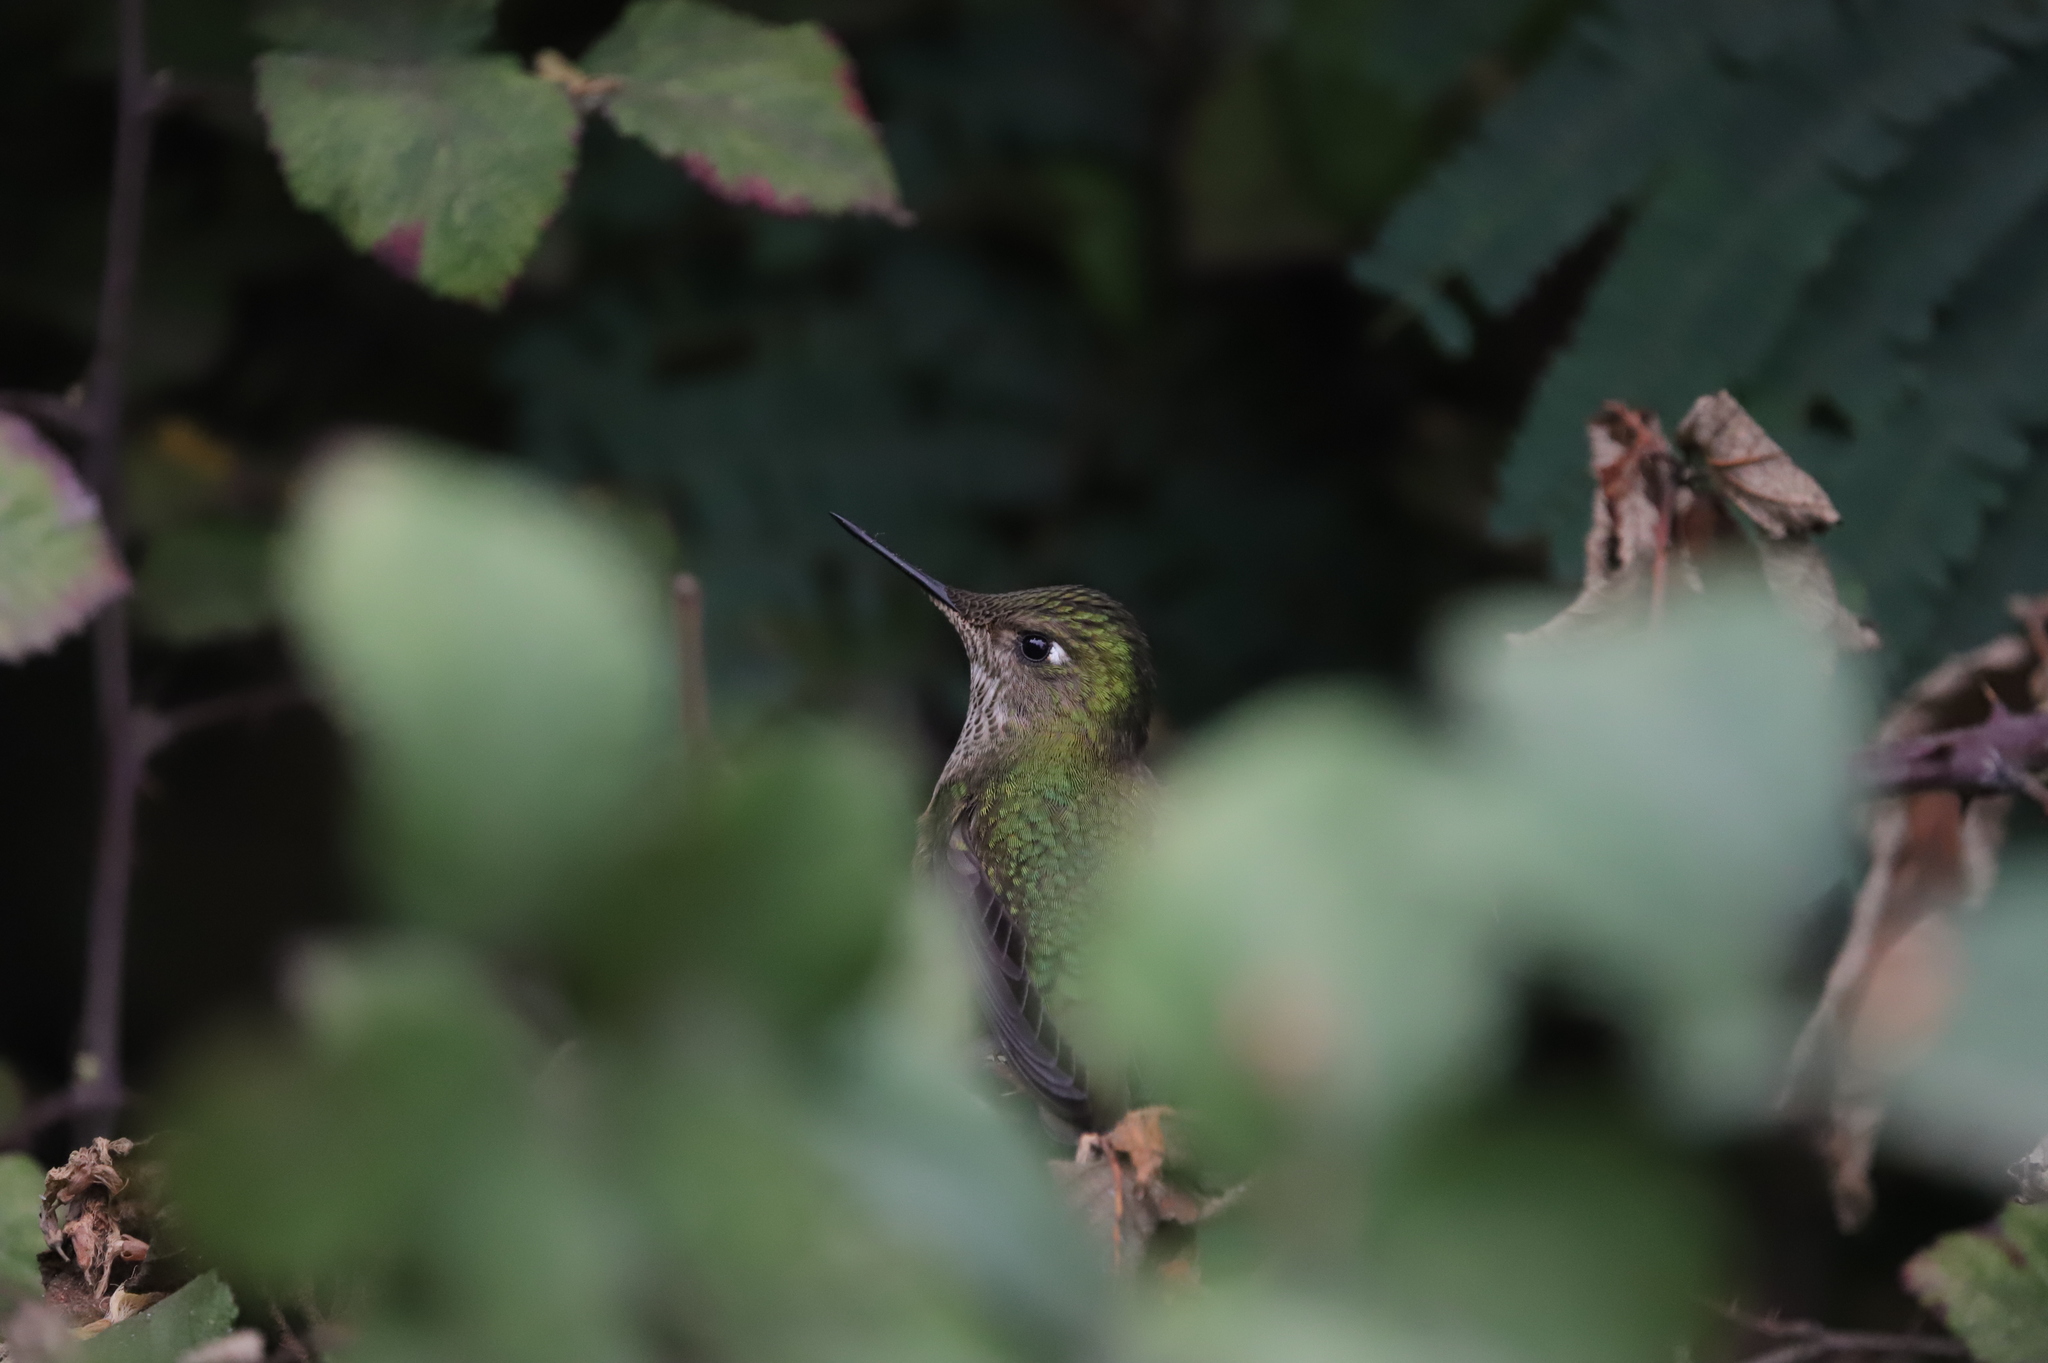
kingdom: Animalia
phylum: Chordata
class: Aves
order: Apodiformes
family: Trochilidae
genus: Sephanoides
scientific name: Sephanoides sephaniodes
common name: Green-backed firecrown
